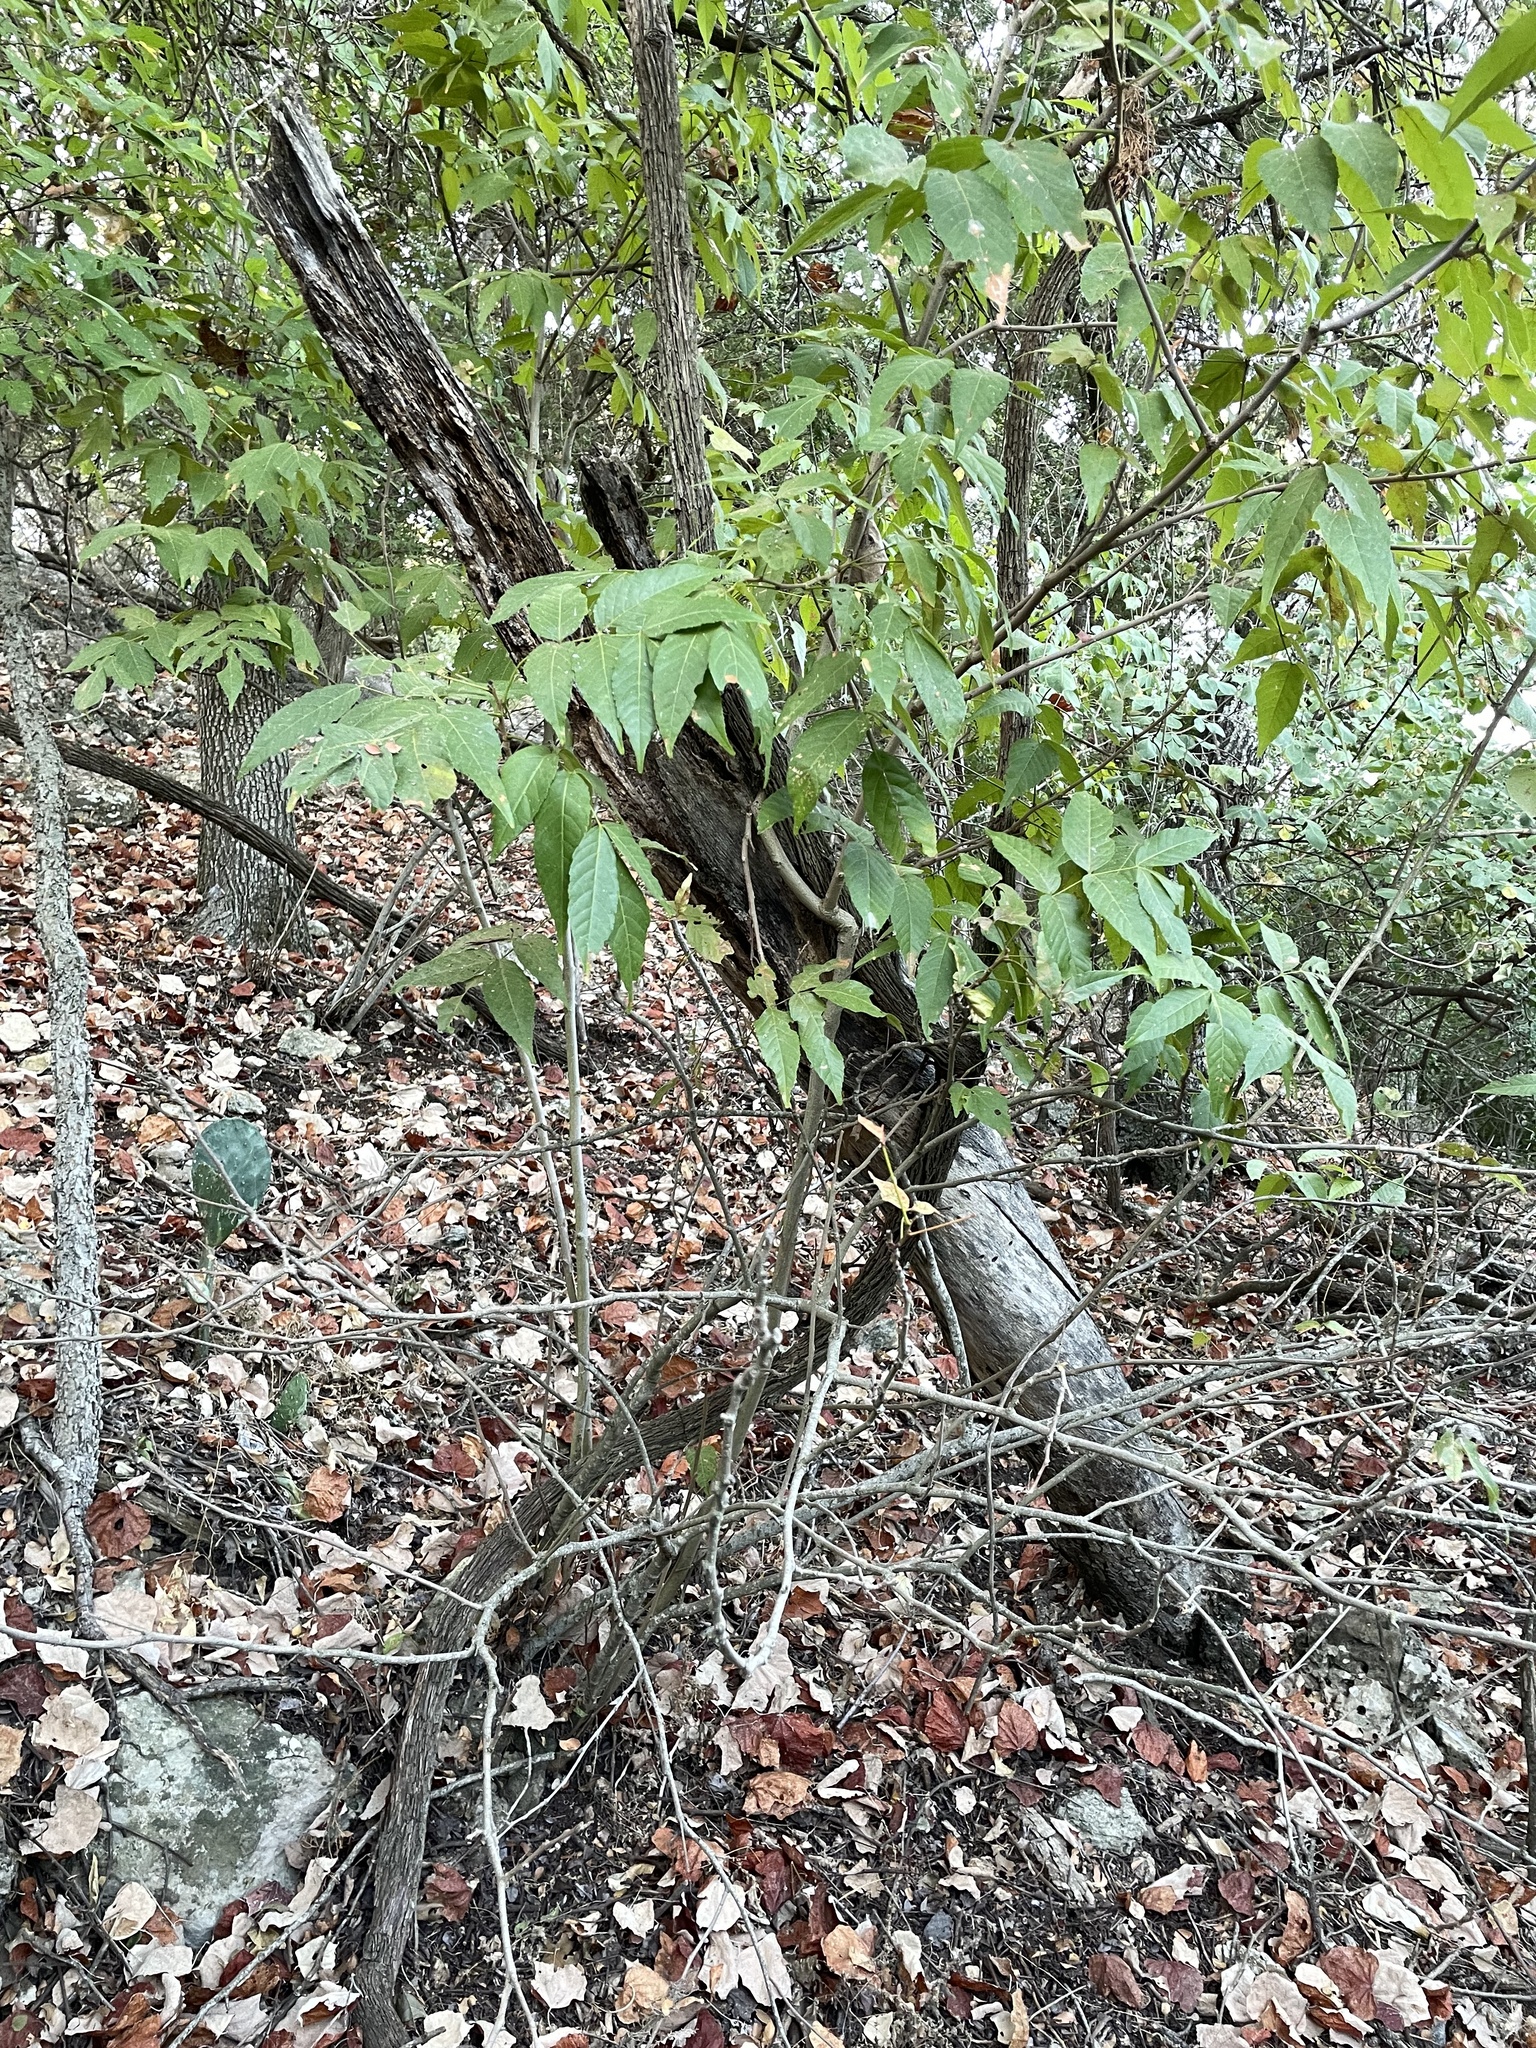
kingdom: Plantae
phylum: Tracheophyta
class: Magnoliopsida
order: Sapindales
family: Sapindaceae
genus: Ungnadia
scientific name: Ungnadia speciosa
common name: Texas-buckeye
